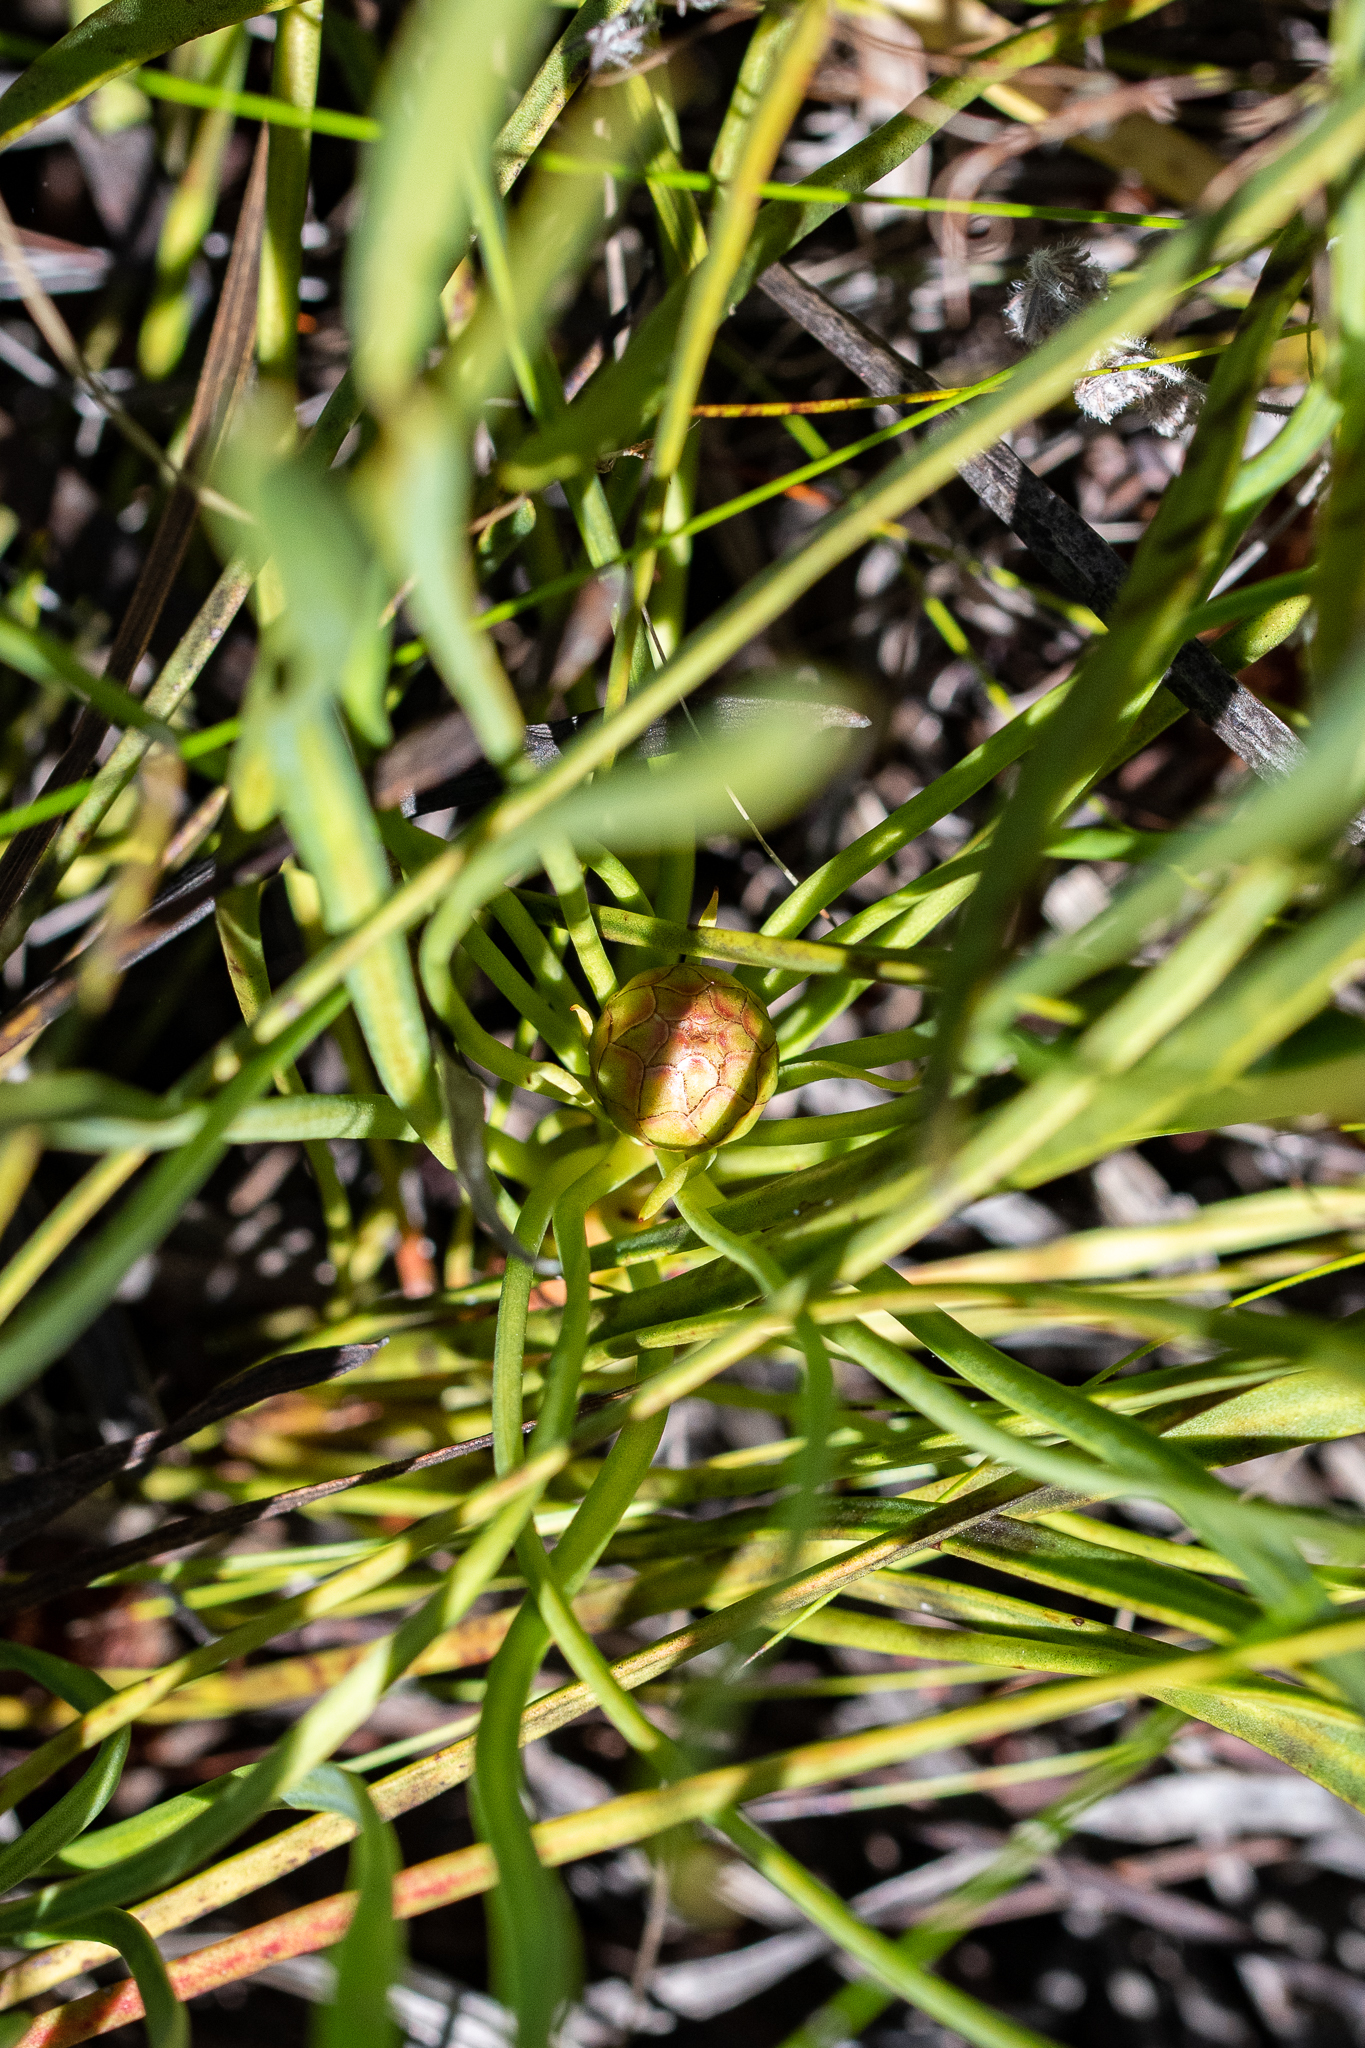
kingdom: Plantae
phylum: Tracheophyta
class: Magnoliopsida
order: Proteales
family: Proteaceae
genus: Protea
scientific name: Protea angustata
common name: Kleinmond sugarbush
